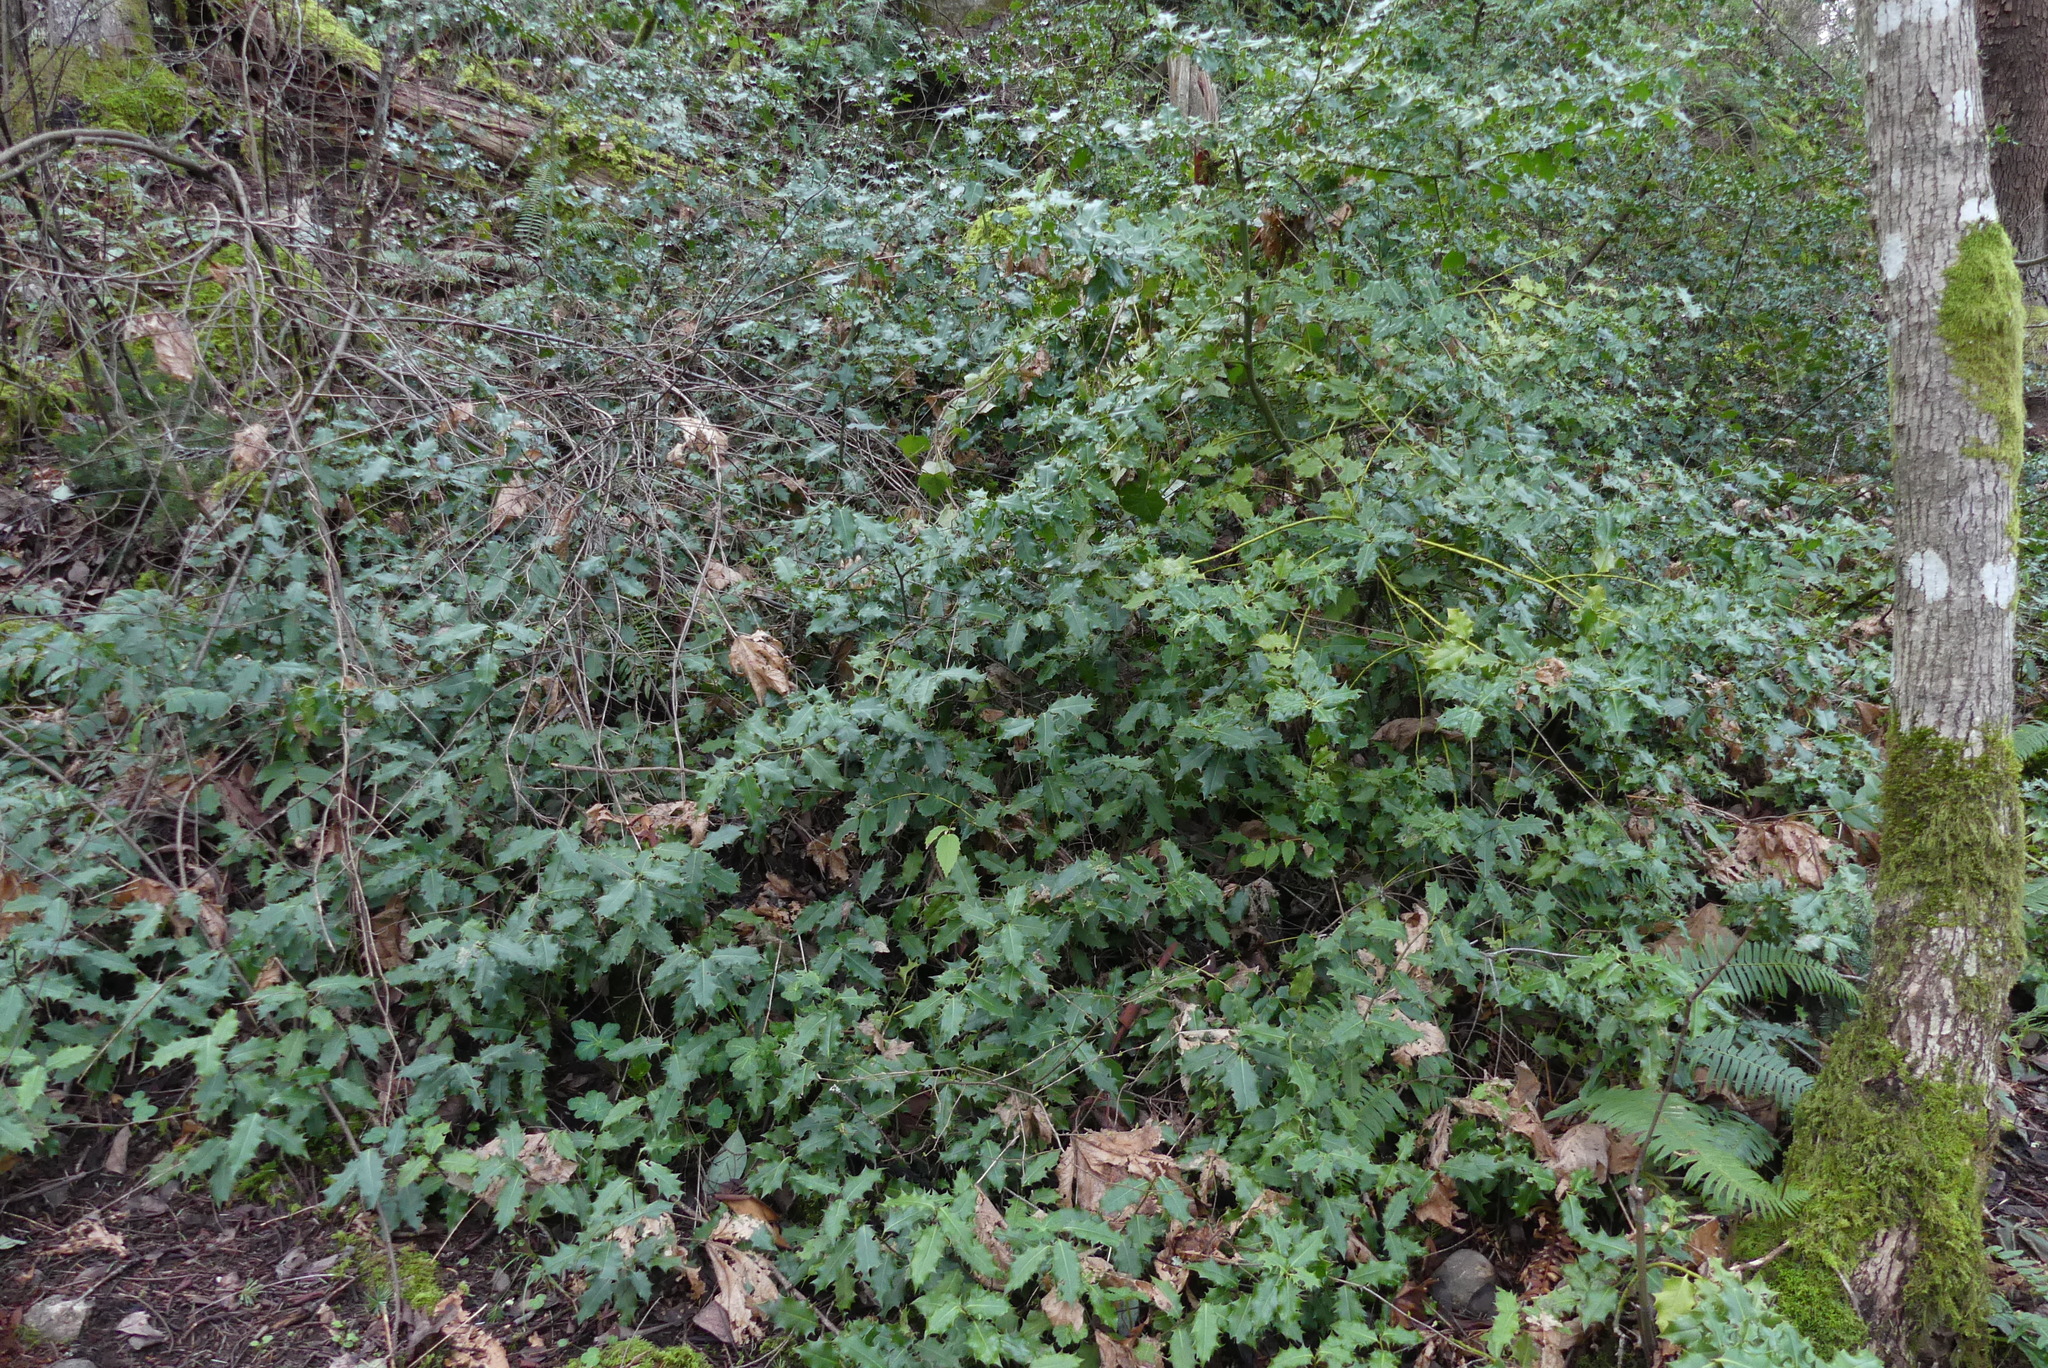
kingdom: Plantae
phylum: Tracheophyta
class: Magnoliopsida
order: Aquifoliales
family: Aquifoliaceae
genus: Ilex
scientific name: Ilex aquifolium
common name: English holly
